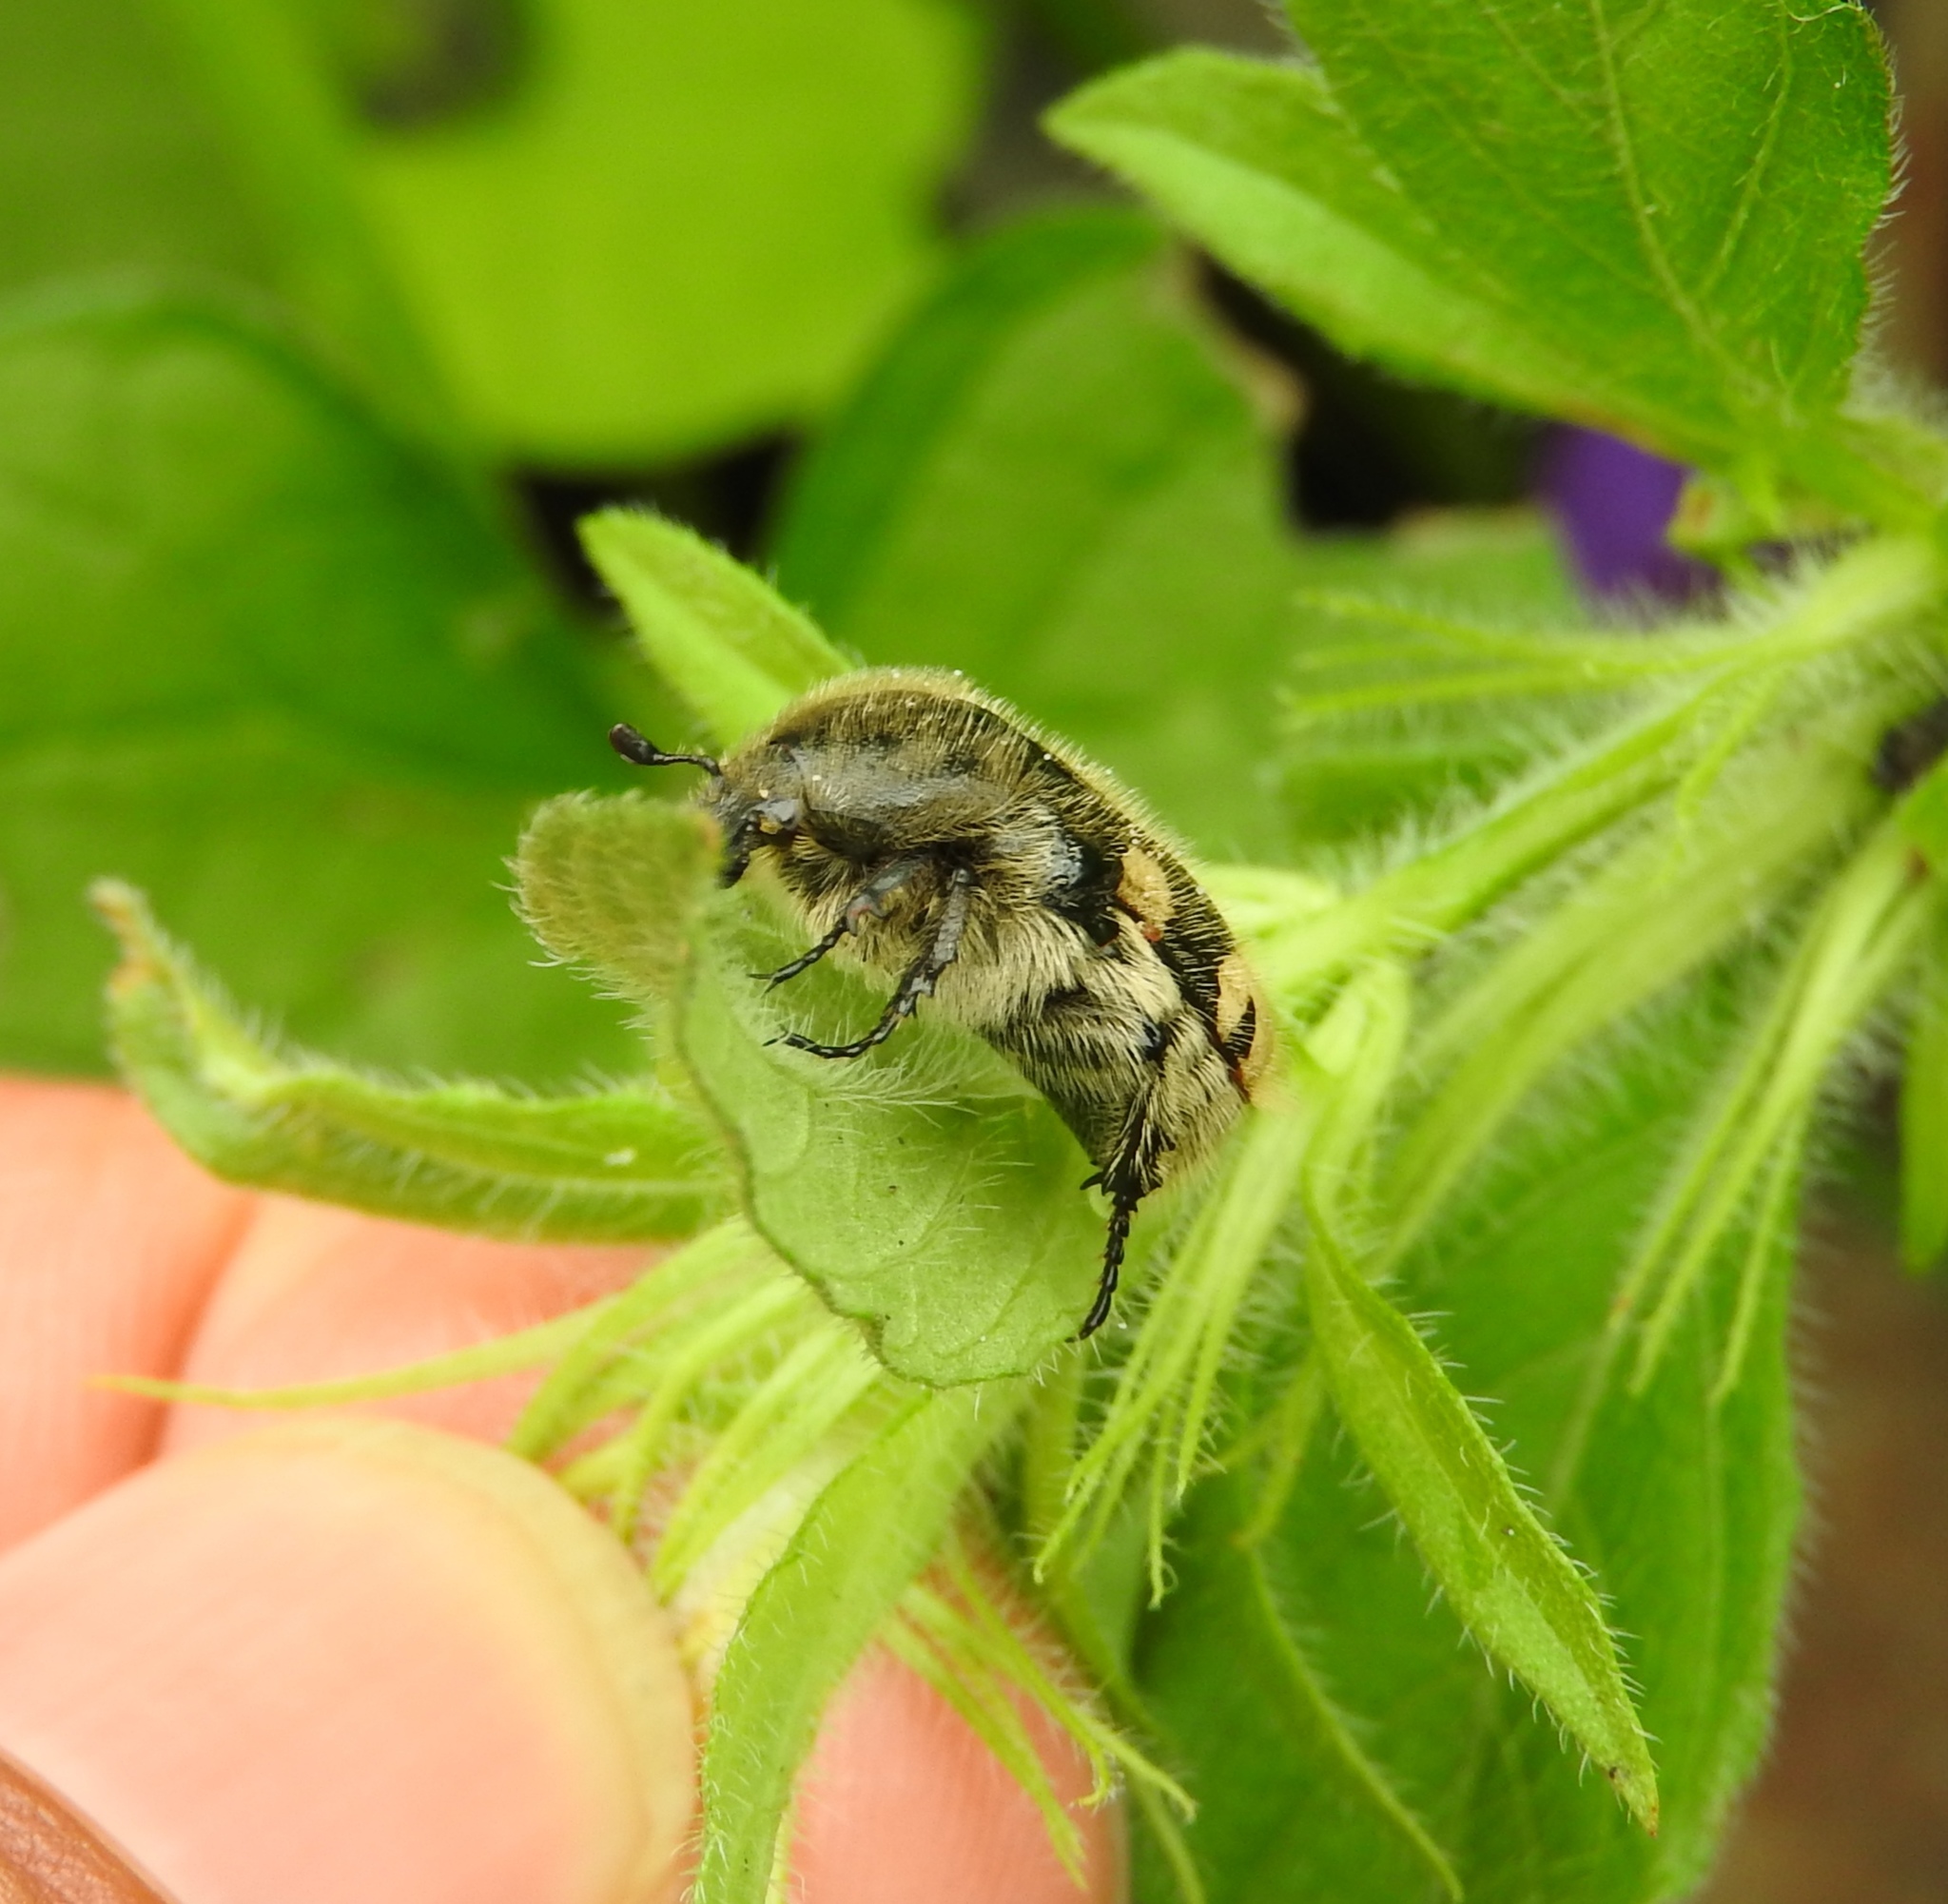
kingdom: Animalia
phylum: Arthropoda
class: Insecta
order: Coleoptera
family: Scarabaeidae
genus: Euphoria
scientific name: Euphoria basalis
